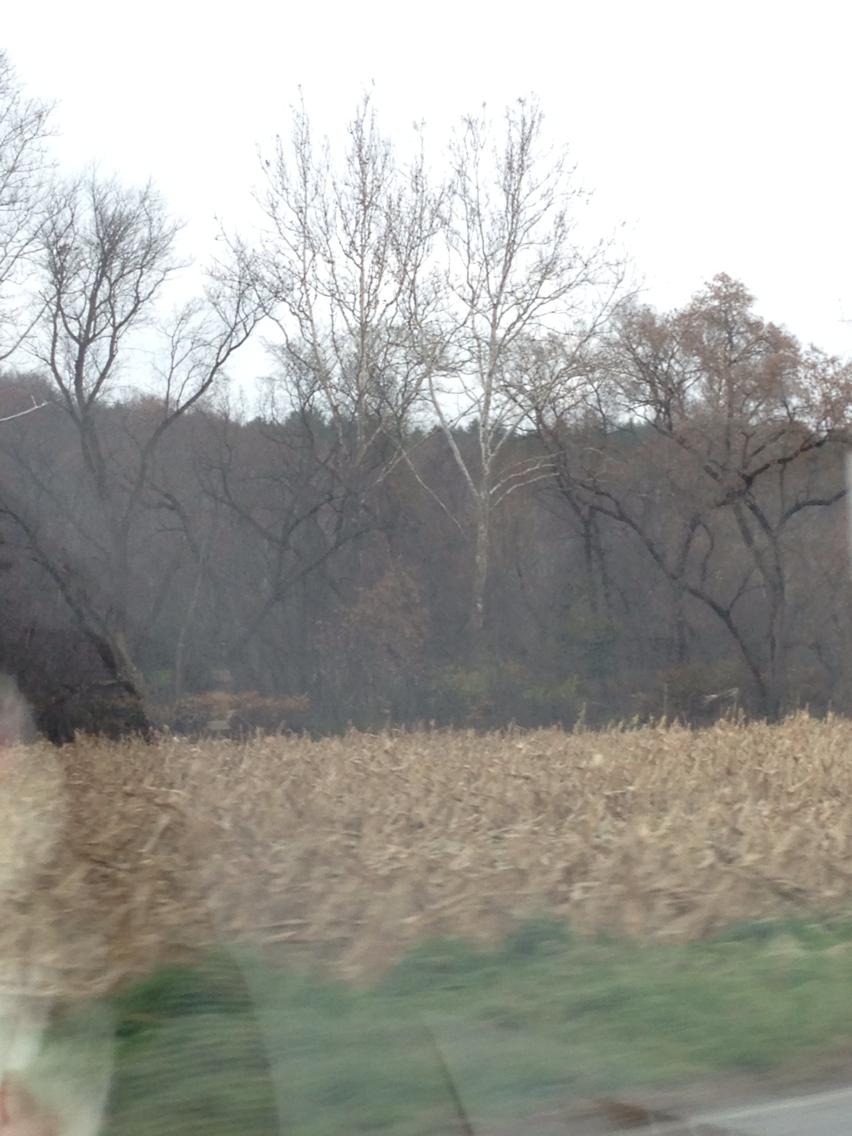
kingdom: Plantae
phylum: Tracheophyta
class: Magnoliopsida
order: Proteales
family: Platanaceae
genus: Platanus
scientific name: Platanus occidentalis
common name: American sycamore
